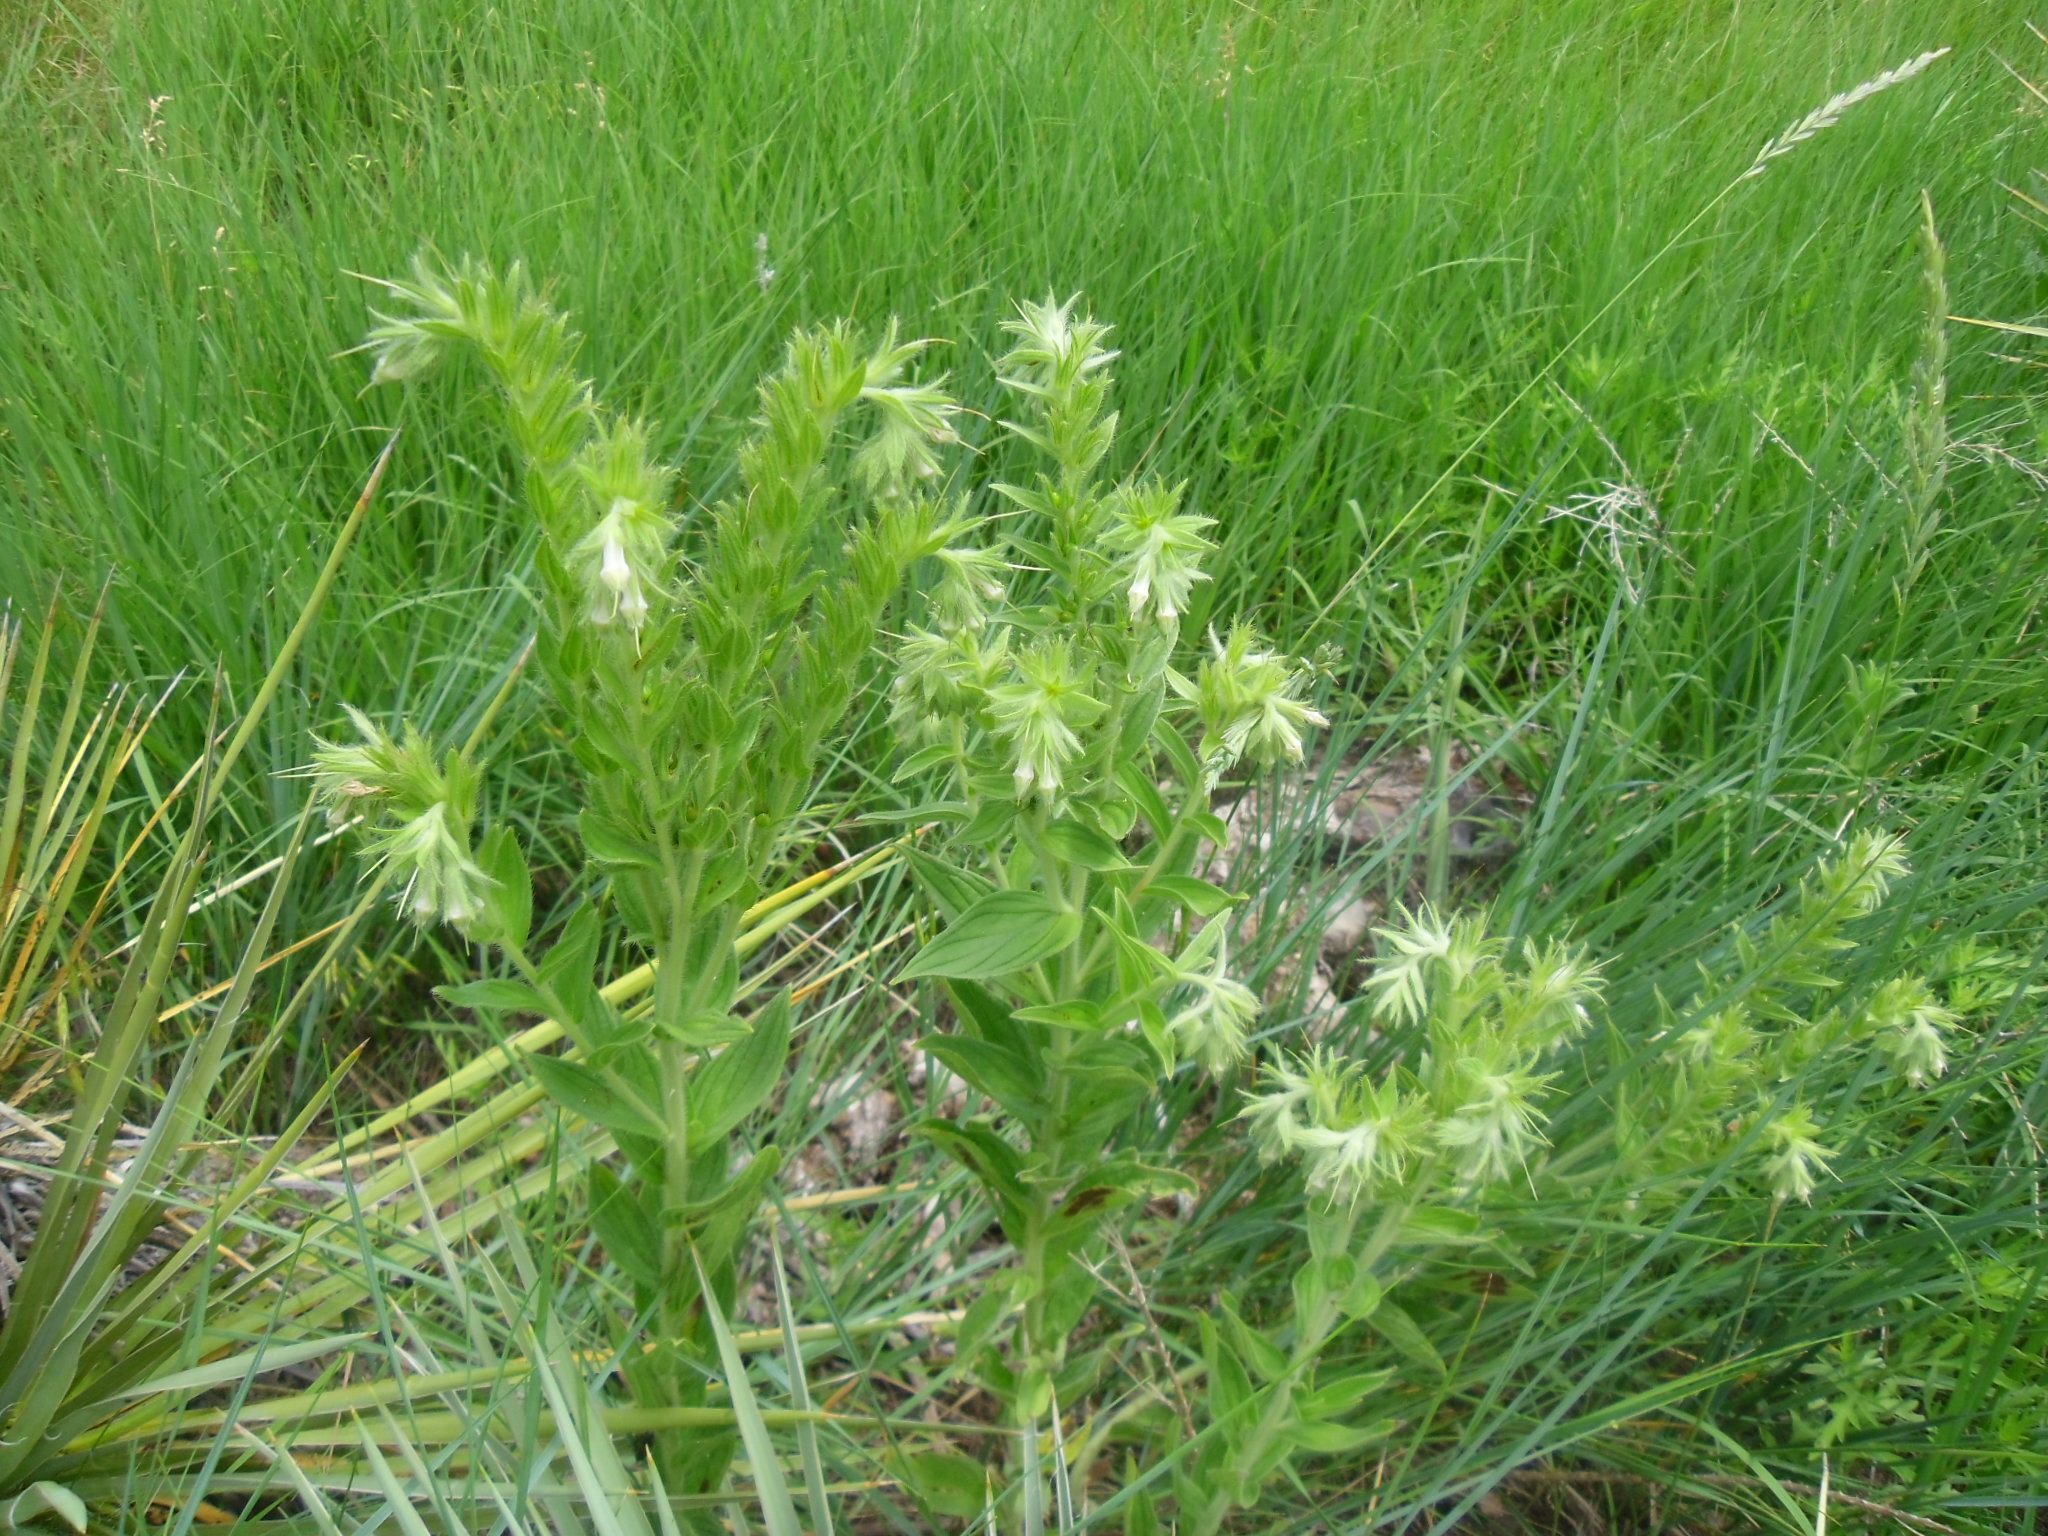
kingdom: Plantae
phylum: Tracheophyta
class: Magnoliopsida
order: Boraginales
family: Boraginaceae
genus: Lithospermum
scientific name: Lithospermum occidentale
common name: Western false gromwell
